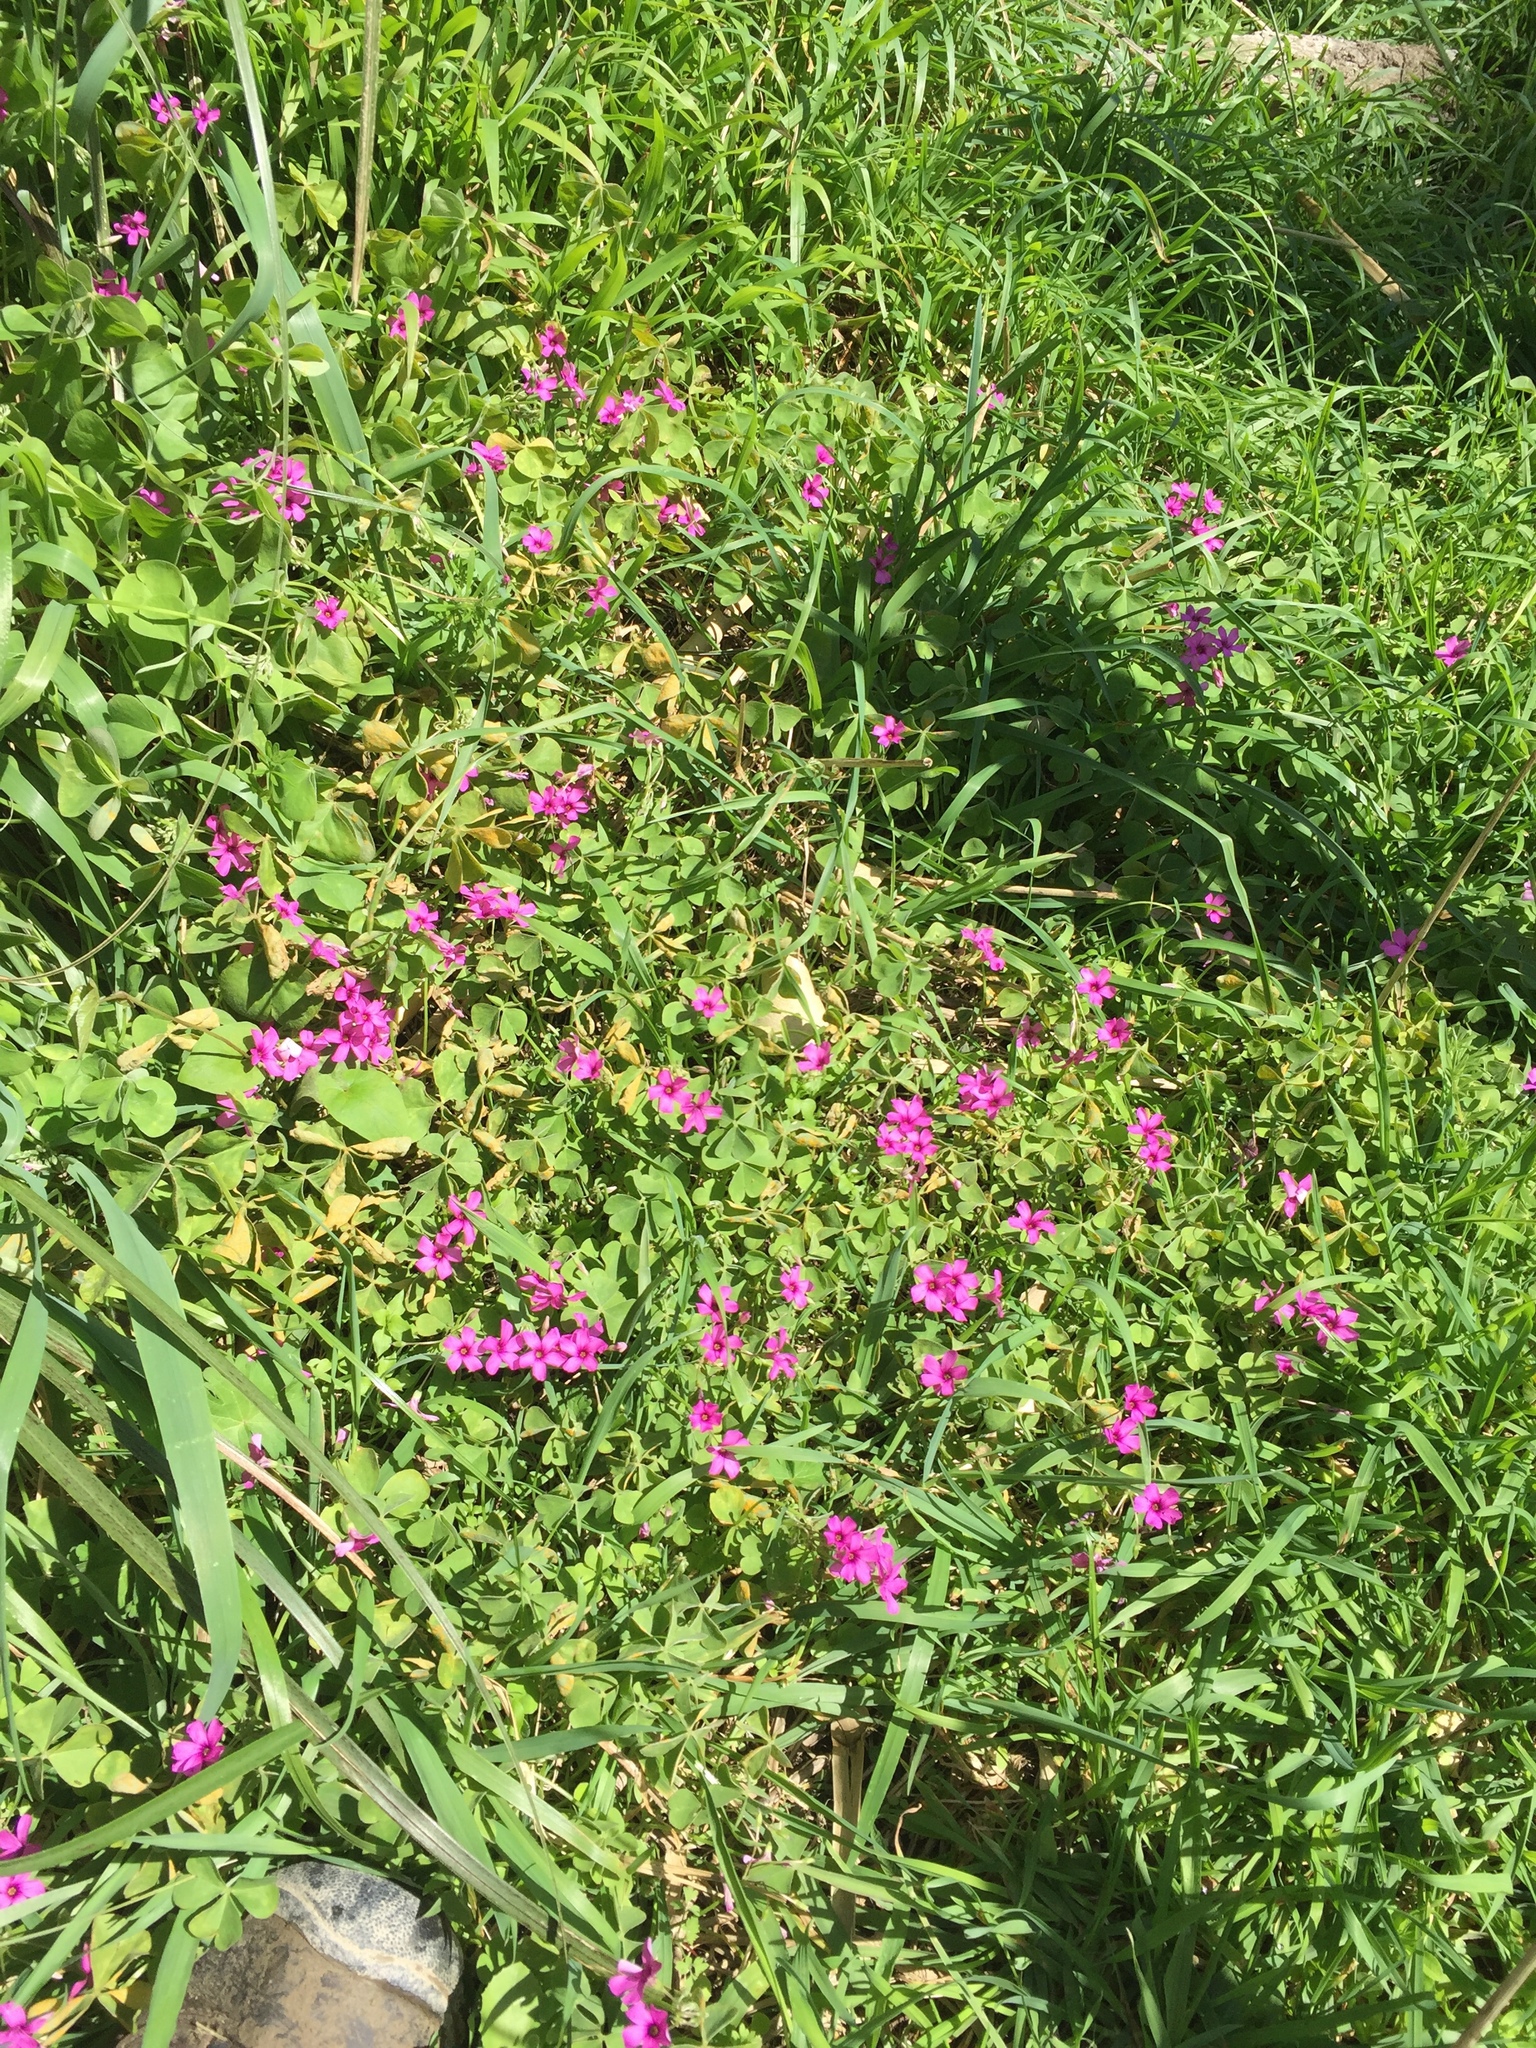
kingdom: Plantae
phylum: Tracheophyta
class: Magnoliopsida
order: Oxalidales
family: Oxalidaceae
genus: Oxalis
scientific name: Oxalis articulata
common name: Pink-sorrel
